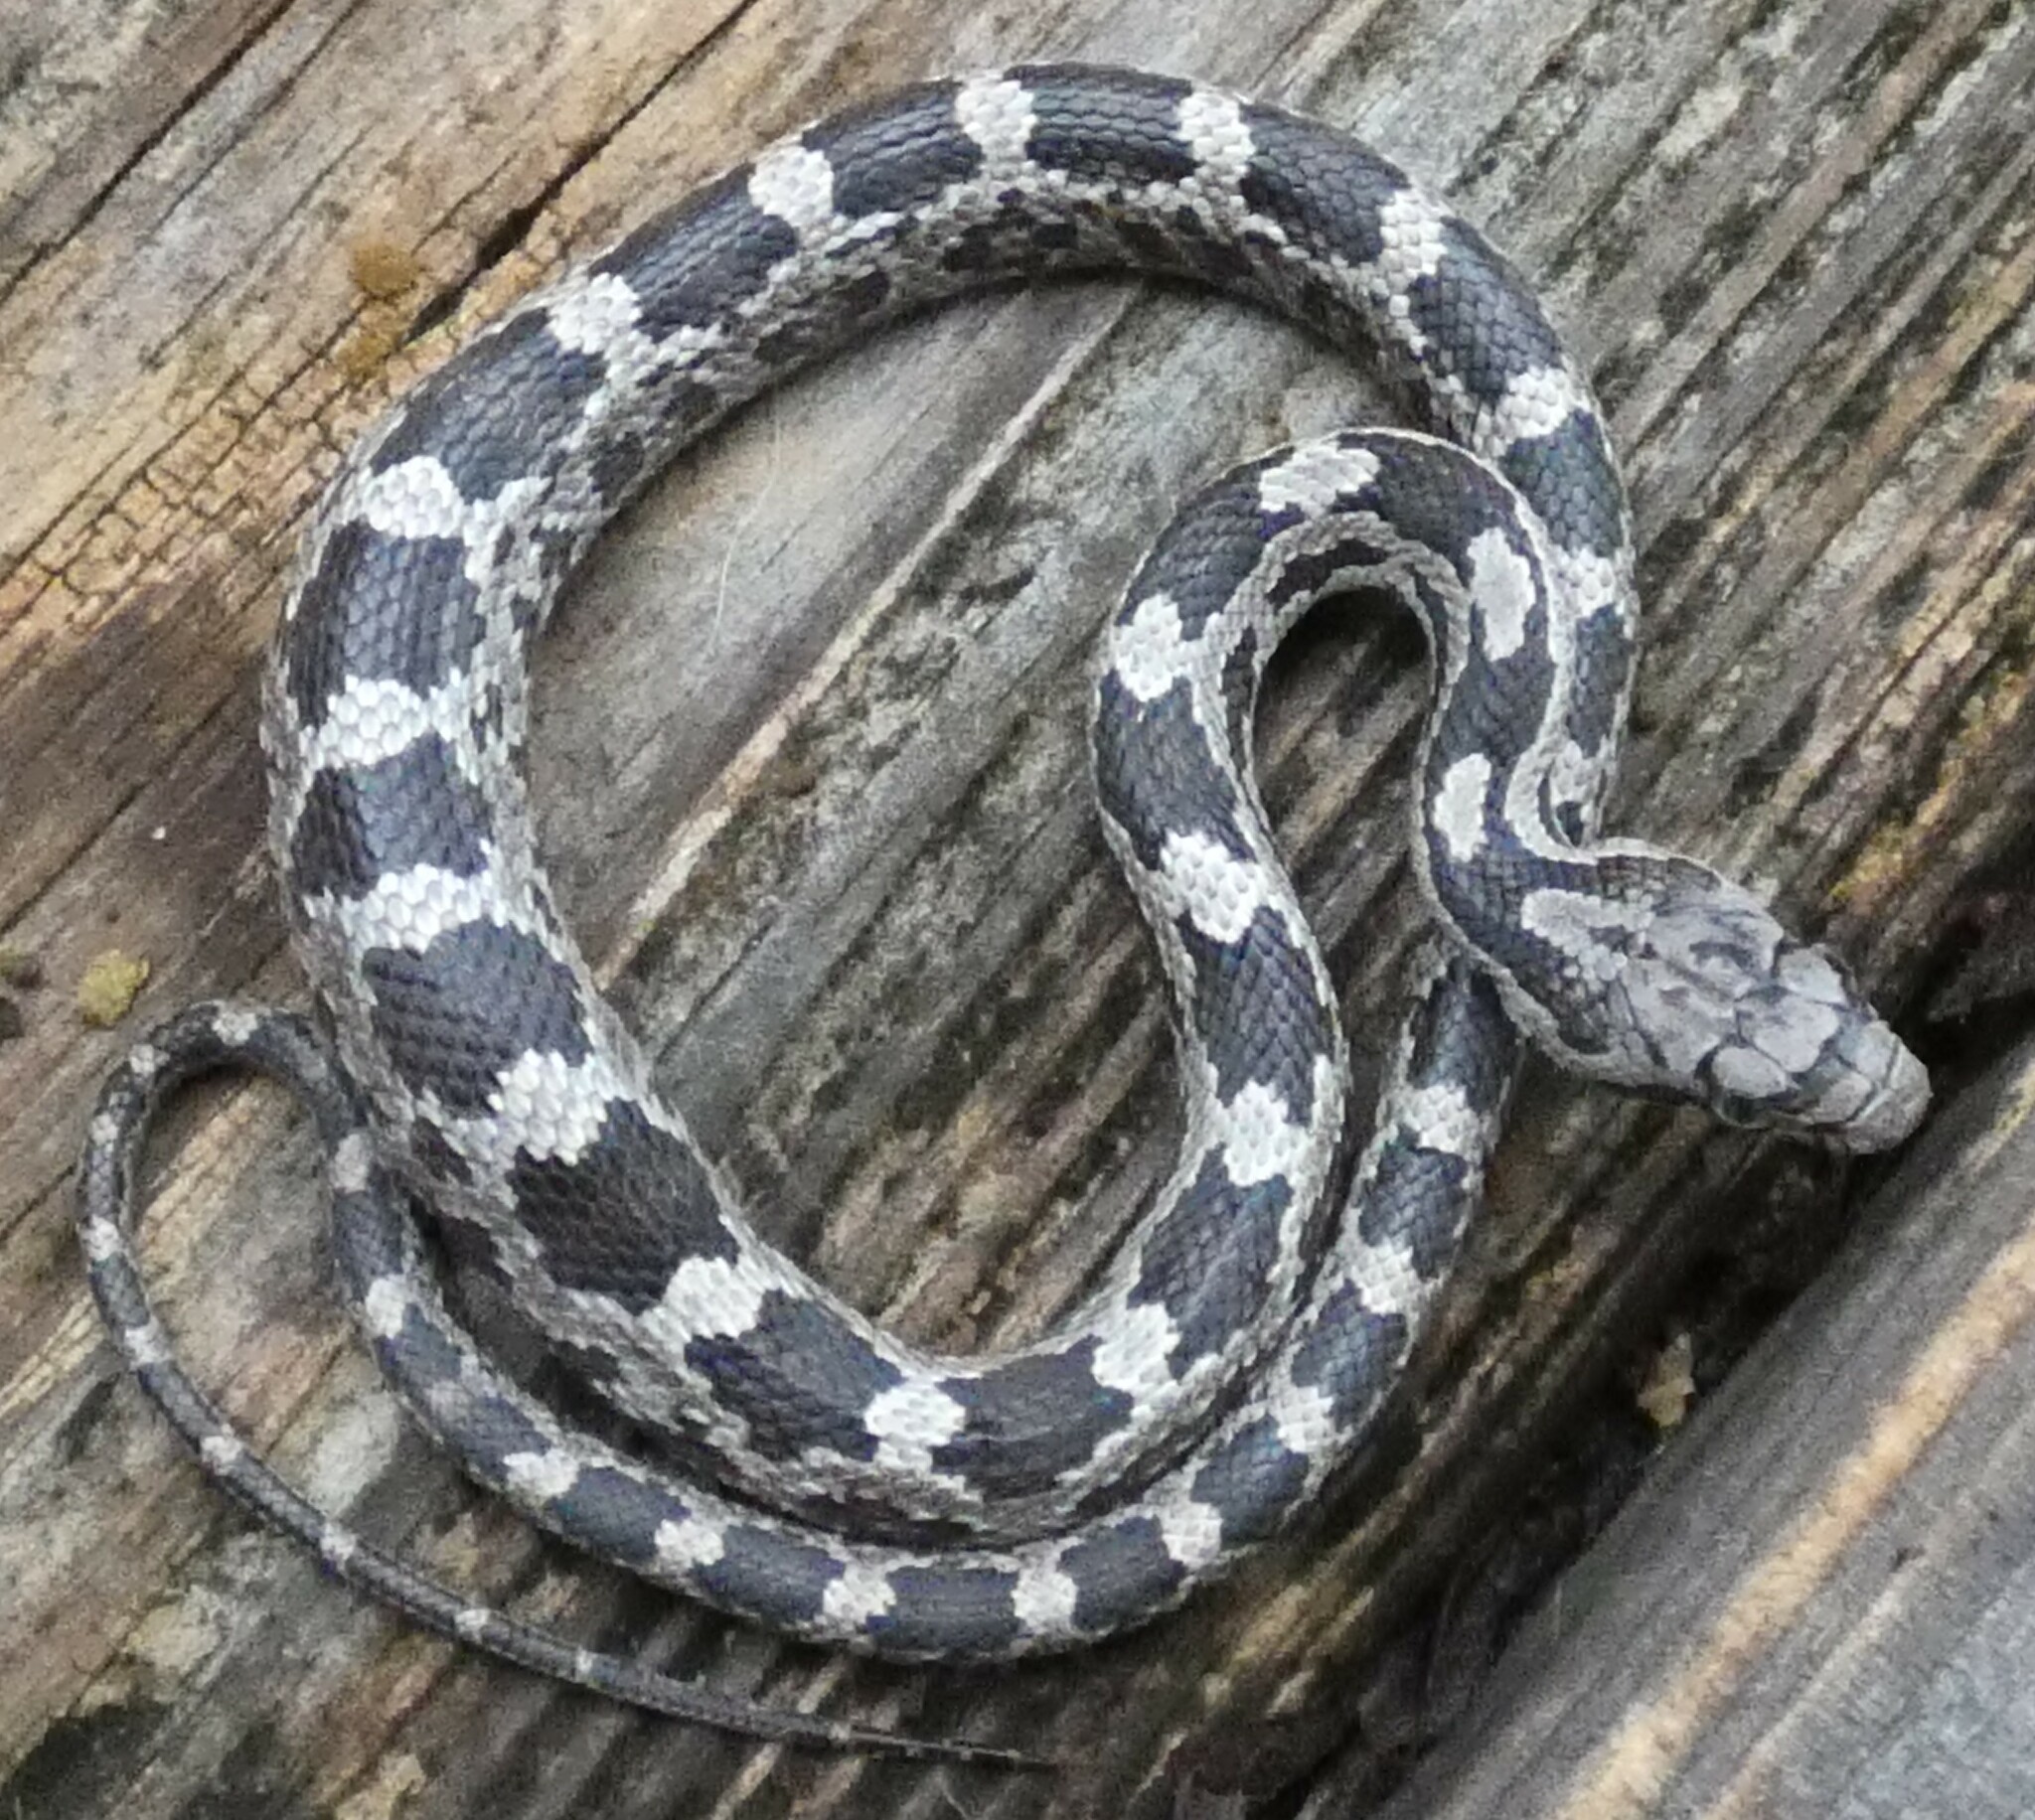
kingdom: Animalia
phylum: Chordata
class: Squamata
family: Colubridae
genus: Pantherophis
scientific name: Pantherophis alleghaniensis
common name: Eastern rat snake
